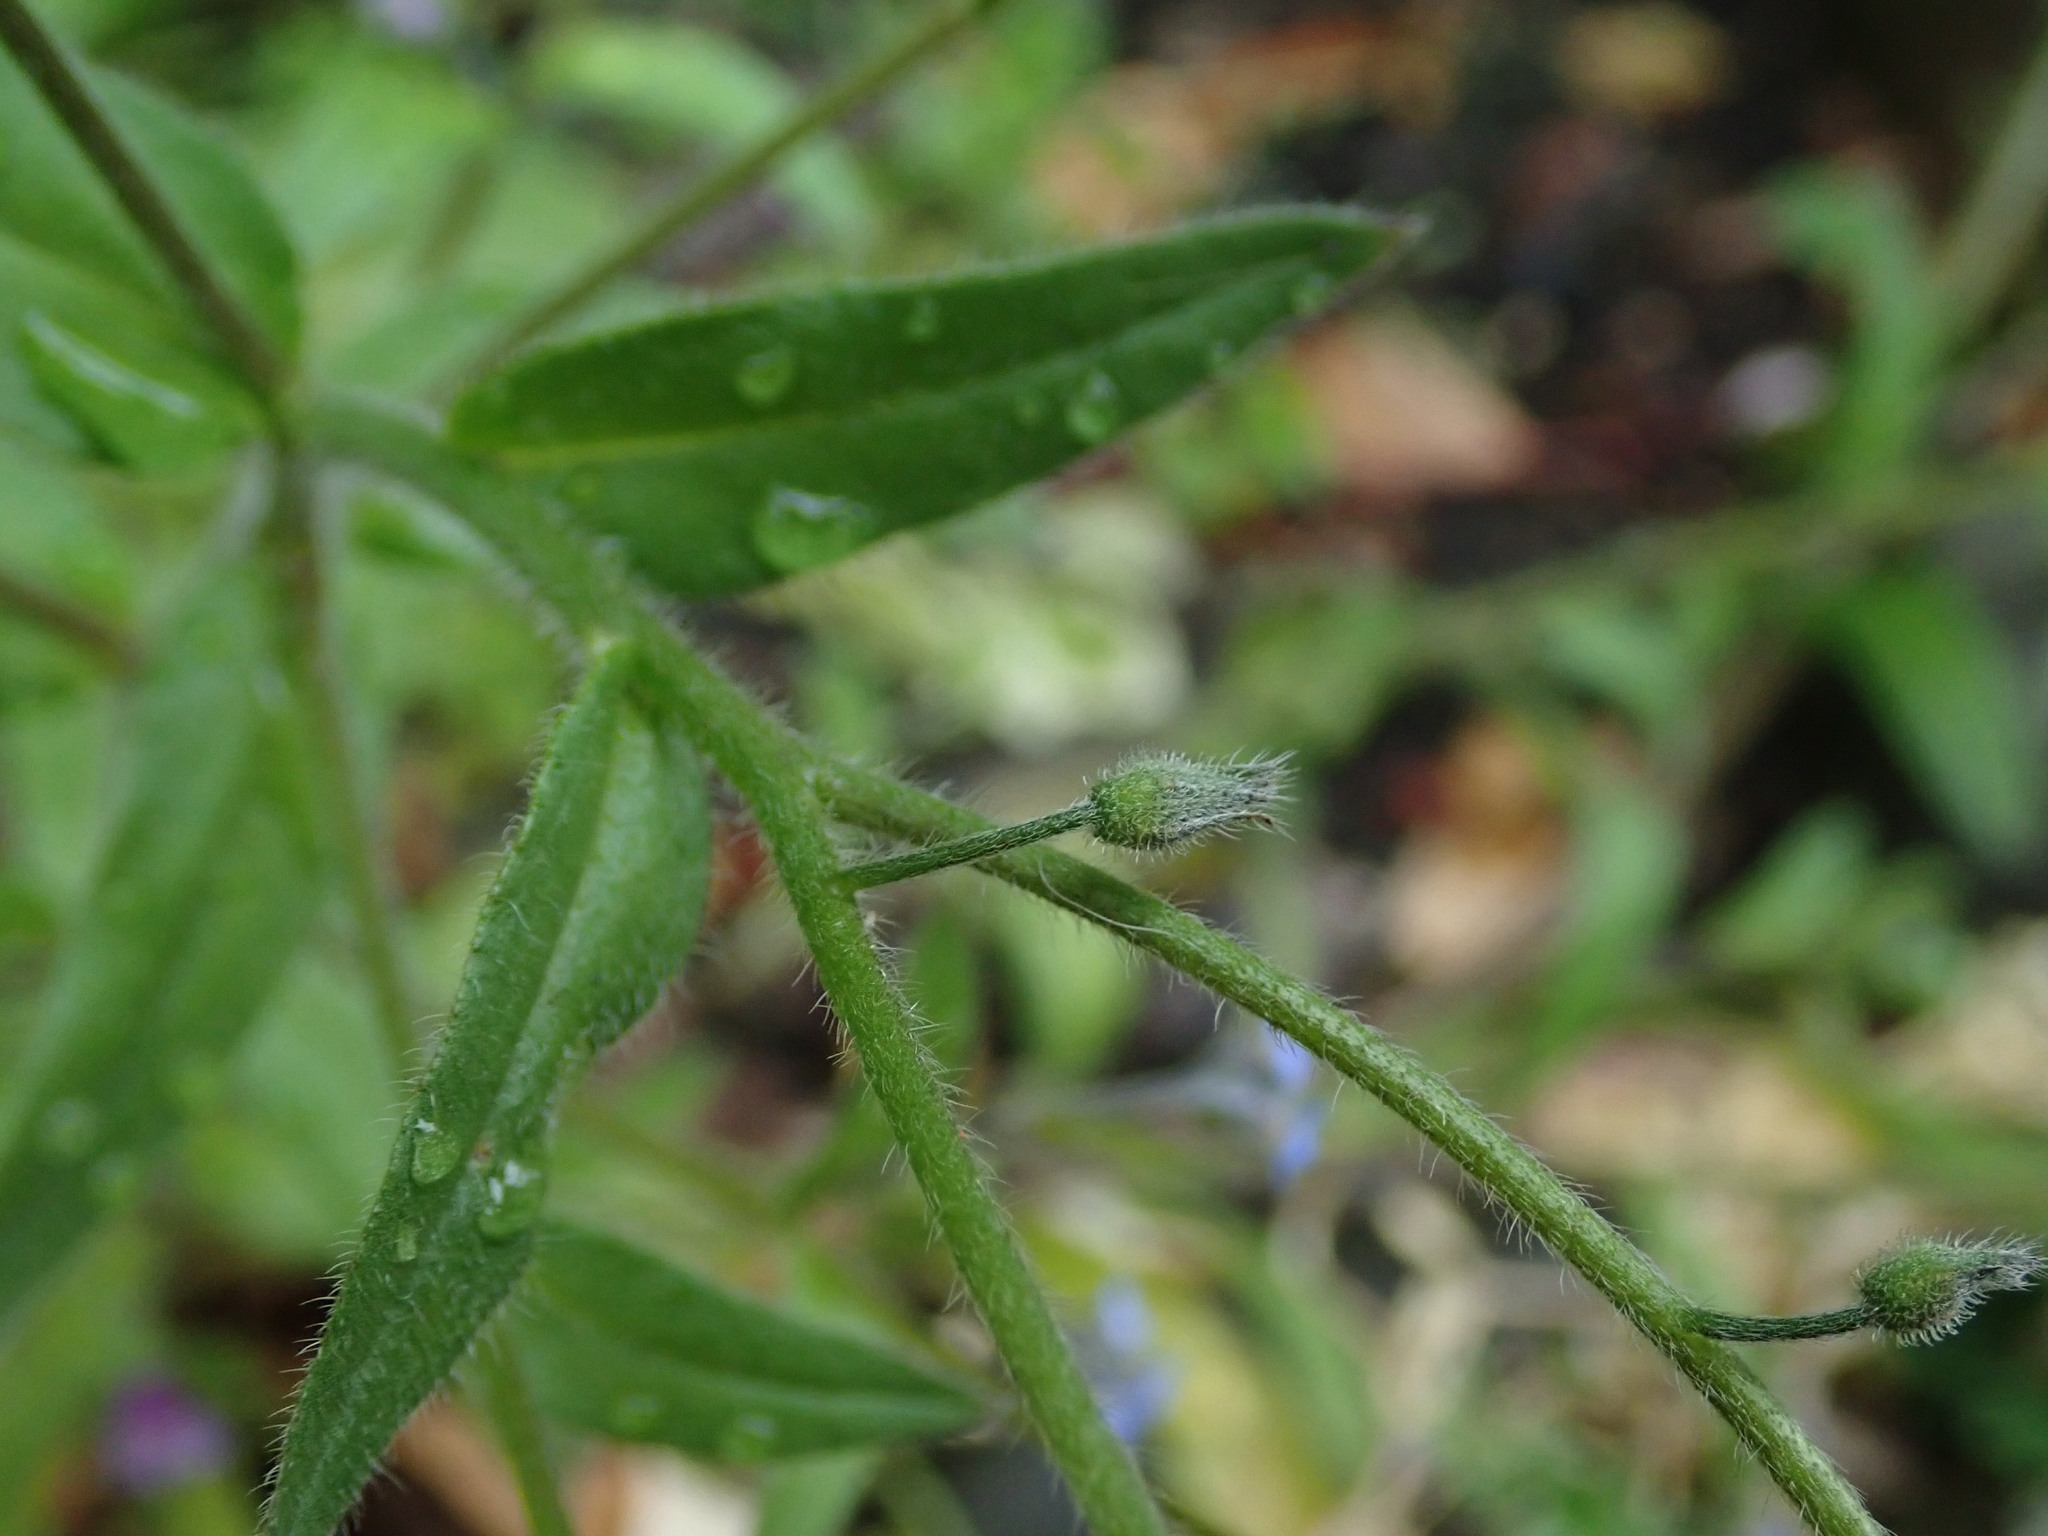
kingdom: Plantae
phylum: Tracheophyta
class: Magnoliopsida
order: Boraginales
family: Boraginaceae
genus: Myosotis
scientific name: Myosotis arvensis
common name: Field forget-me-not
